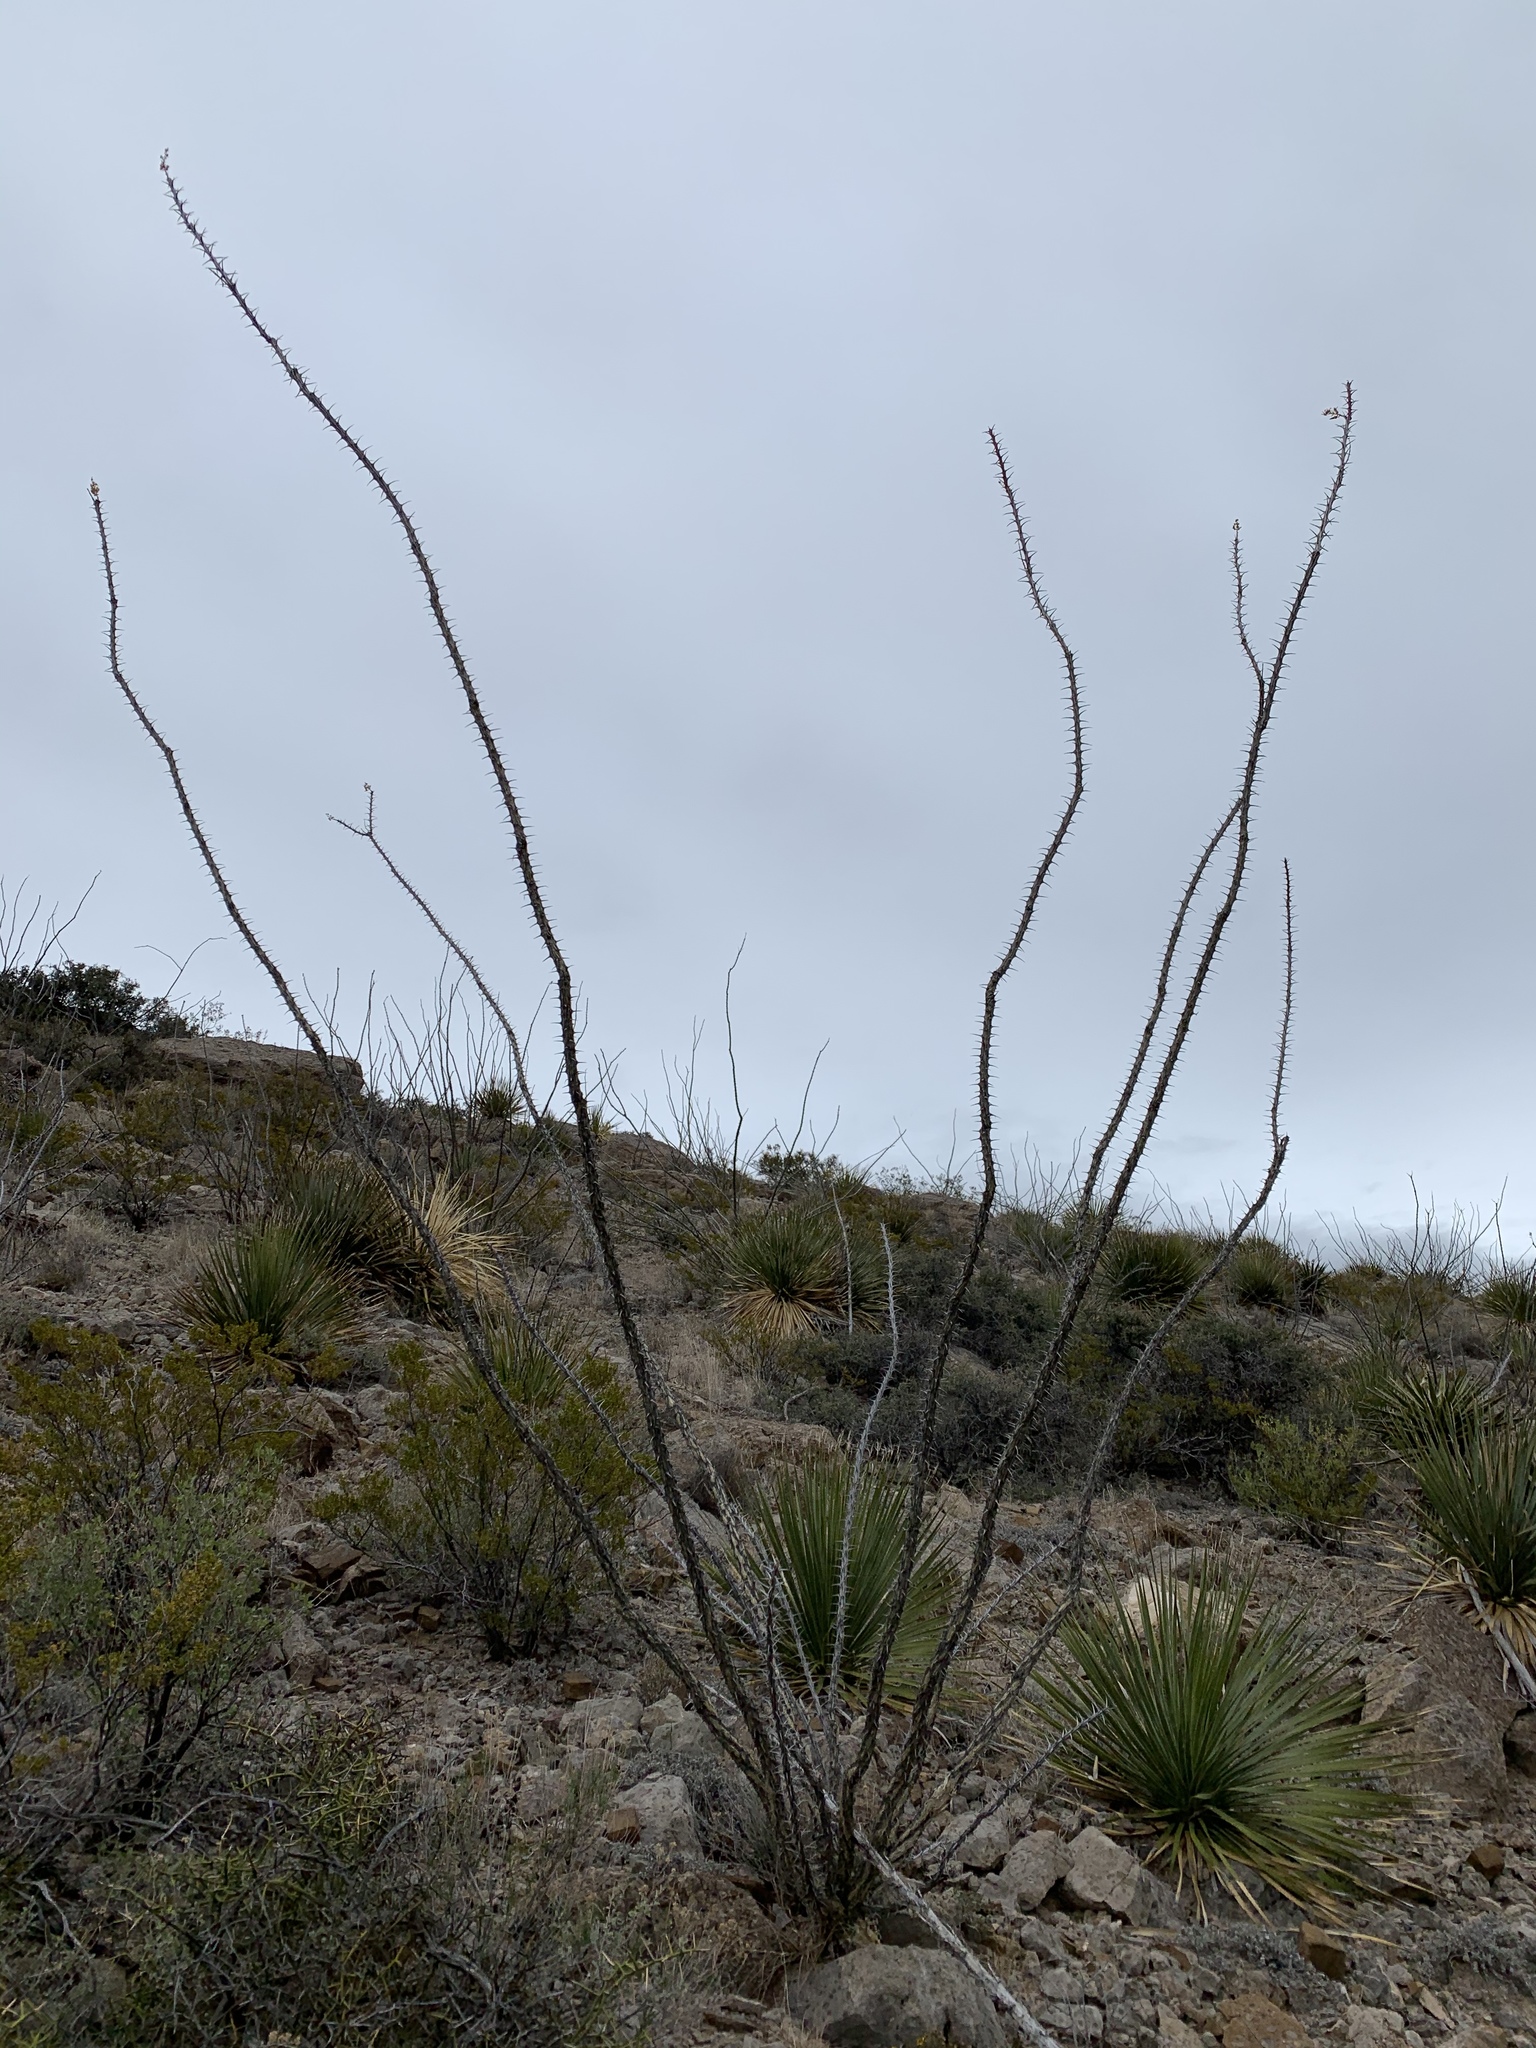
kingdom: Plantae
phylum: Tracheophyta
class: Magnoliopsida
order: Ericales
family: Fouquieriaceae
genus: Fouquieria
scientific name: Fouquieria splendens
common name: Vine-cactus
